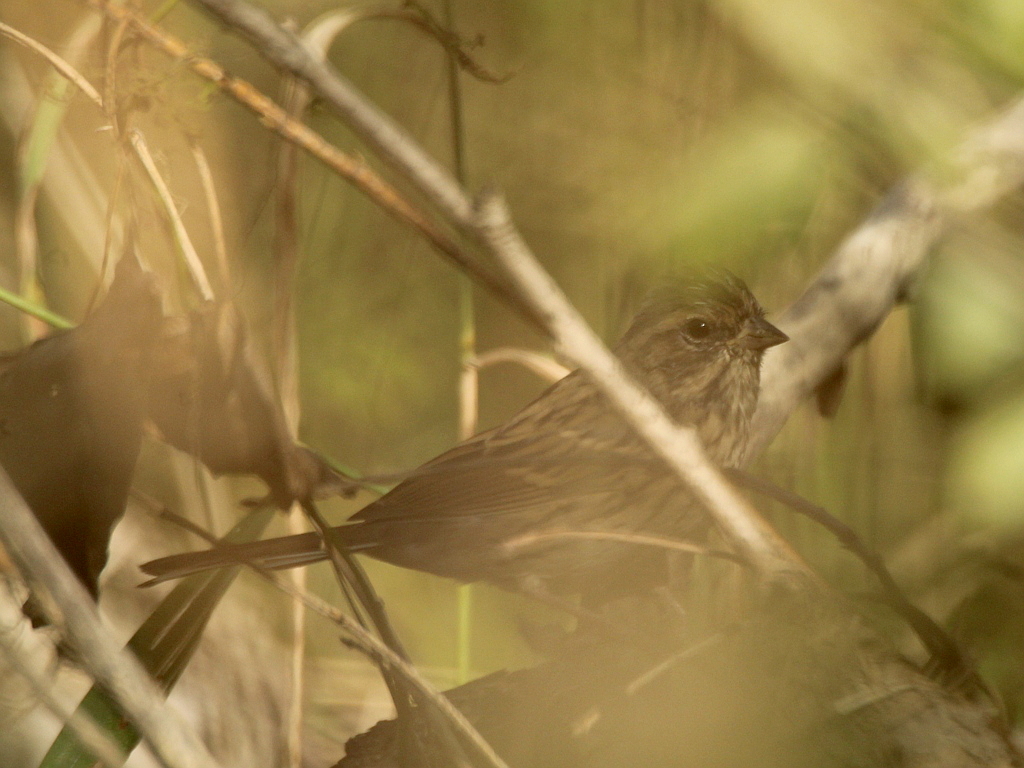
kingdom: Animalia
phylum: Chordata
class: Aves
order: Passeriformes
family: Emberizidae
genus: Emberiza
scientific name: Emberiza spodocephala
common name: Black-faced bunting
